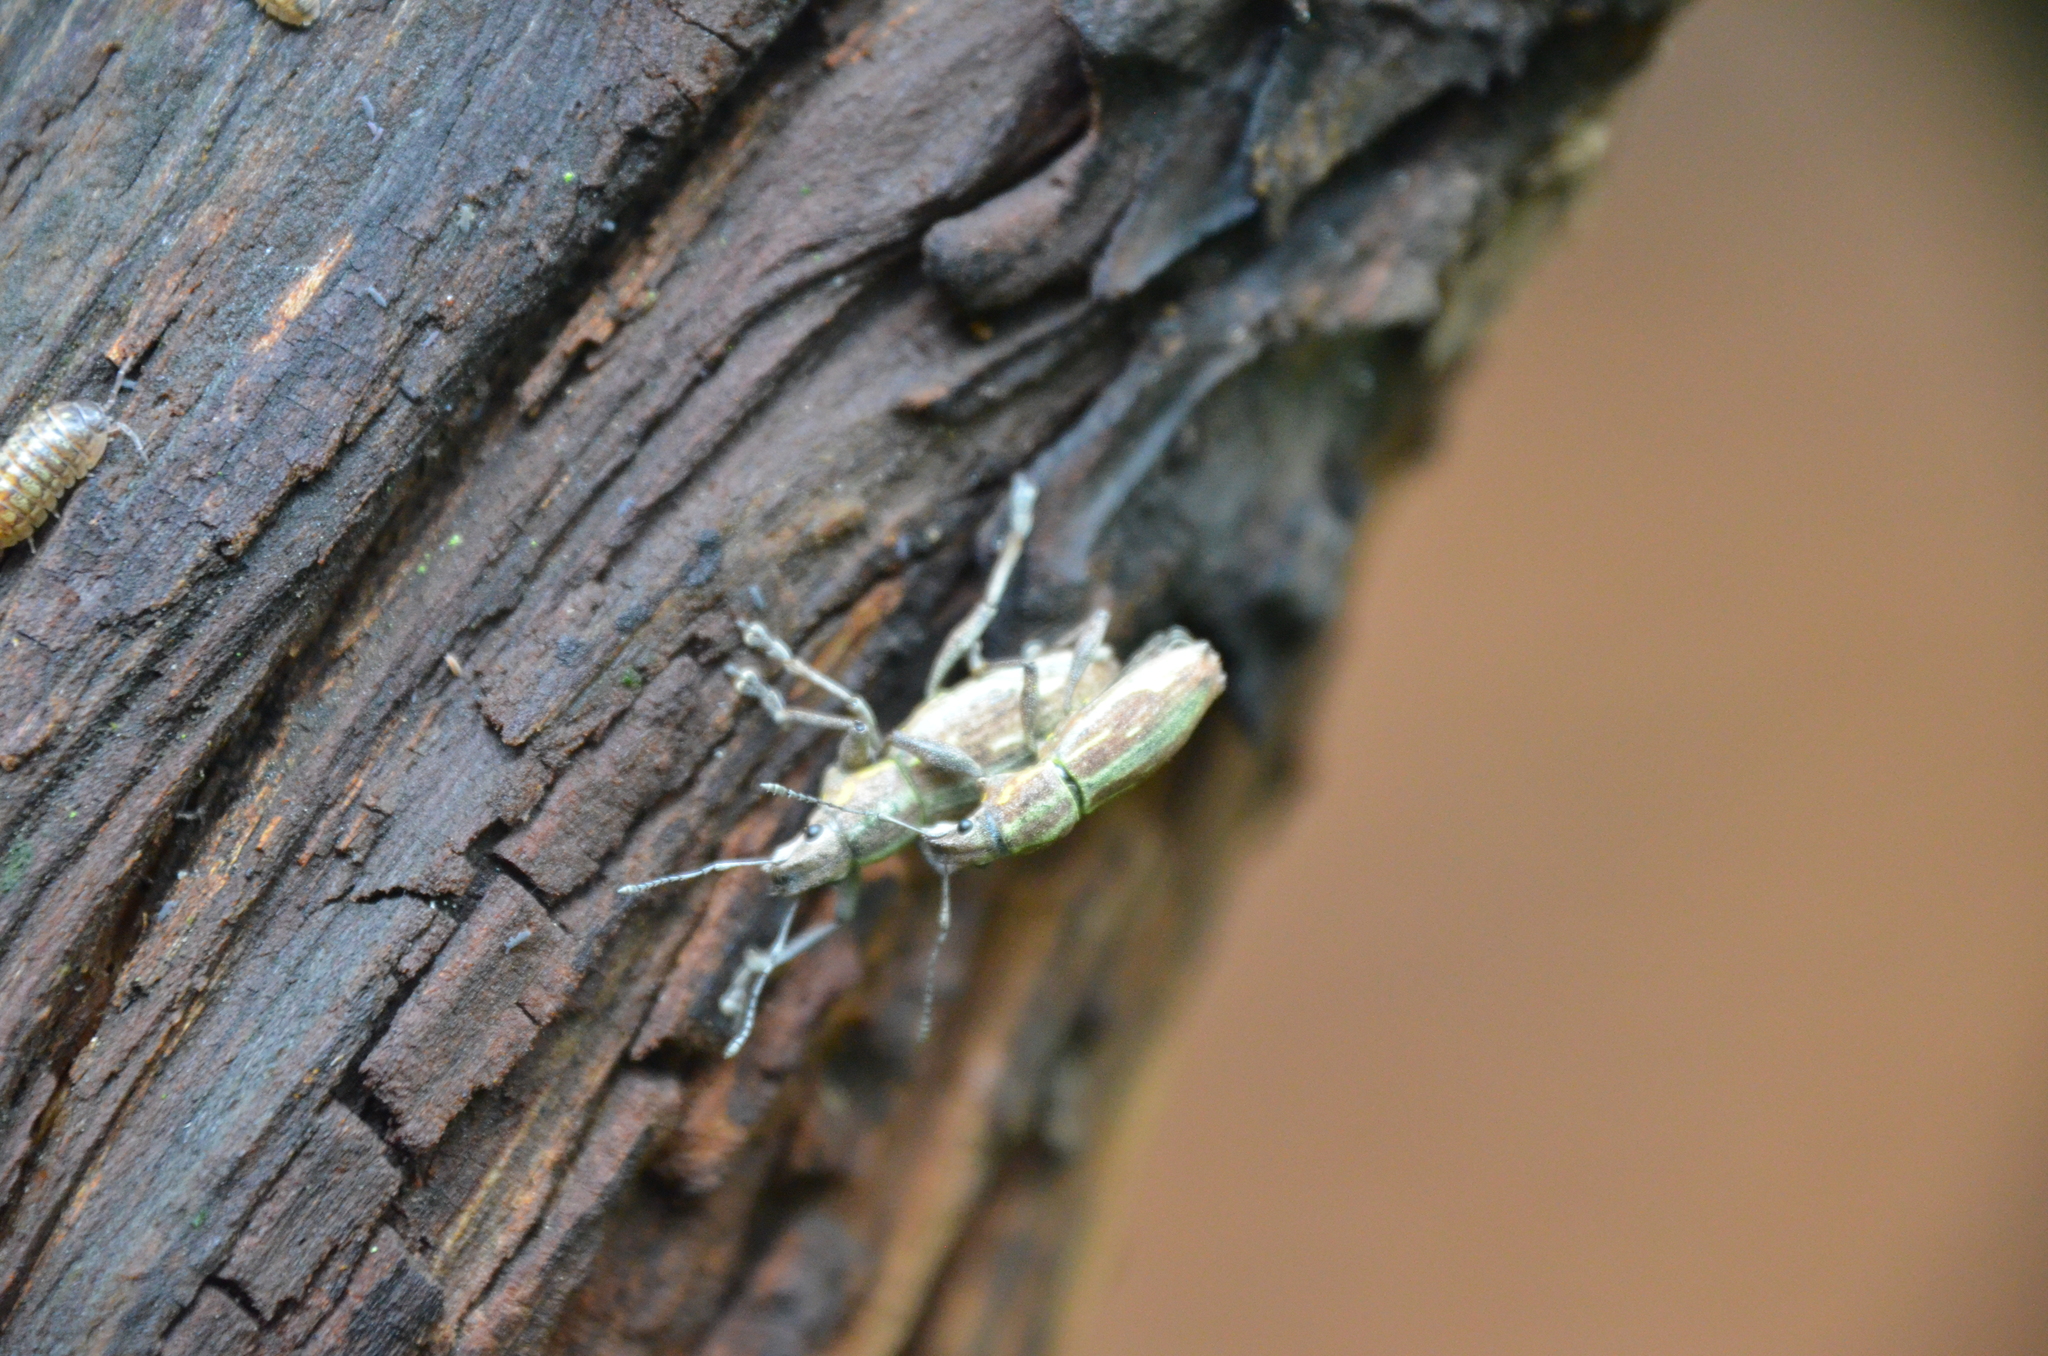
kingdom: Animalia
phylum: Arthropoda
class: Insecta
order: Coleoptera
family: Curculionidae
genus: Naupactus
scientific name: Naupactus xanthographus
